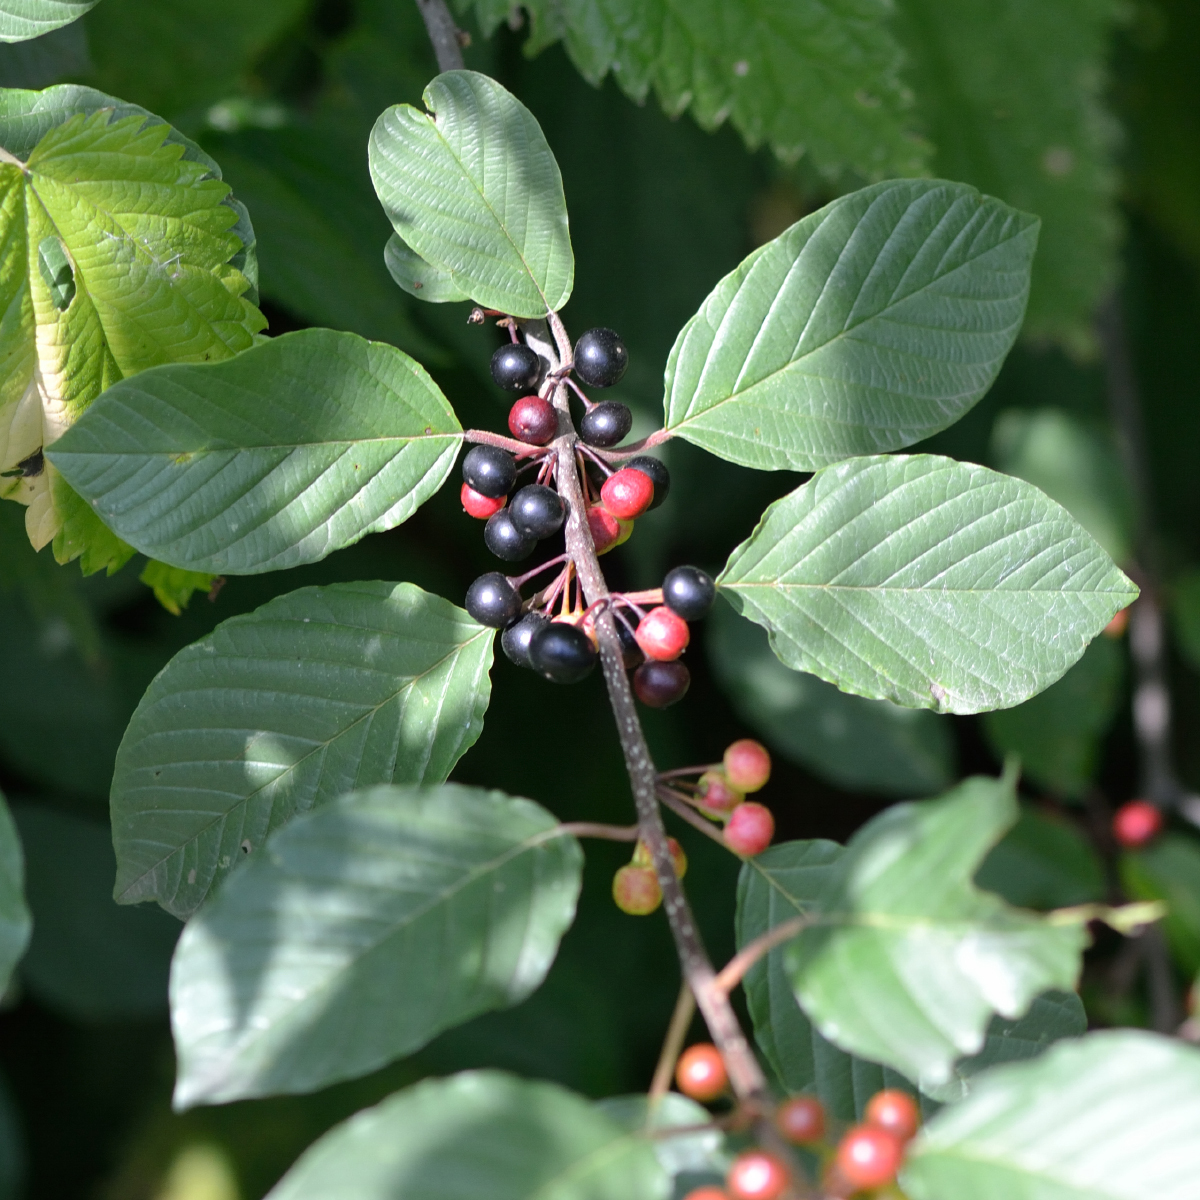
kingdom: Plantae
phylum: Tracheophyta
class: Magnoliopsida
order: Rosales
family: Rhamnaceae
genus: Frangula
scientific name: Frangula alnus
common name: Alder buckthorn
